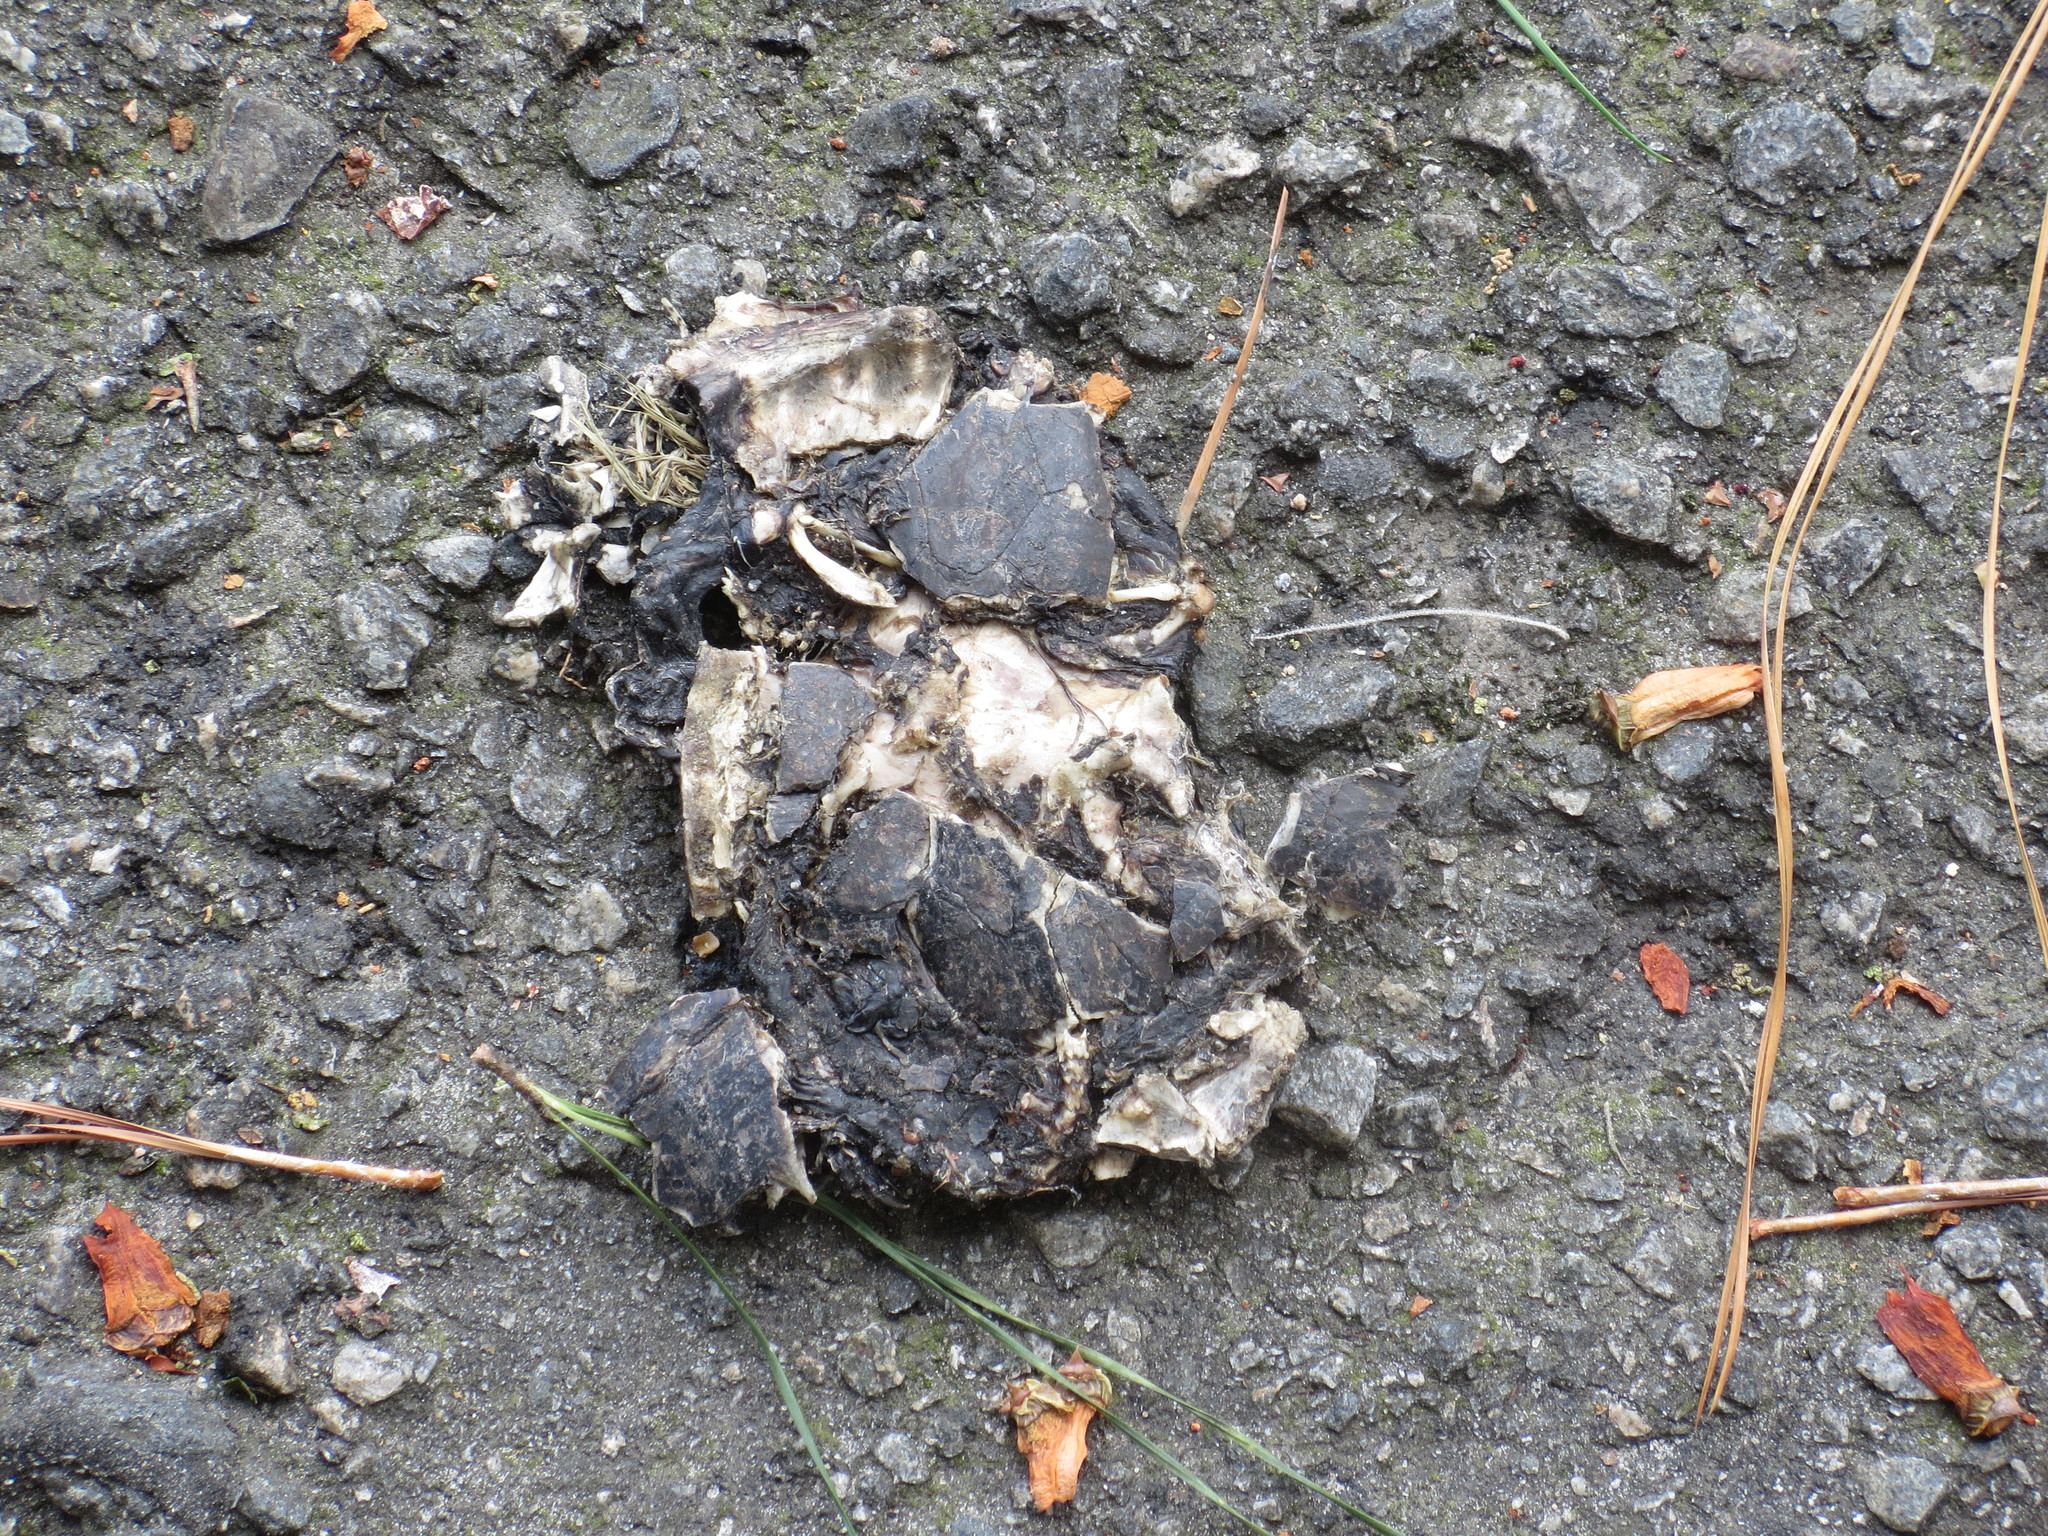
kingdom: Animalia
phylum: Chordata
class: Testudines
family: Kinosternidae
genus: Sternotherus
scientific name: Sternotherus odoratus
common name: Common musk turtle
